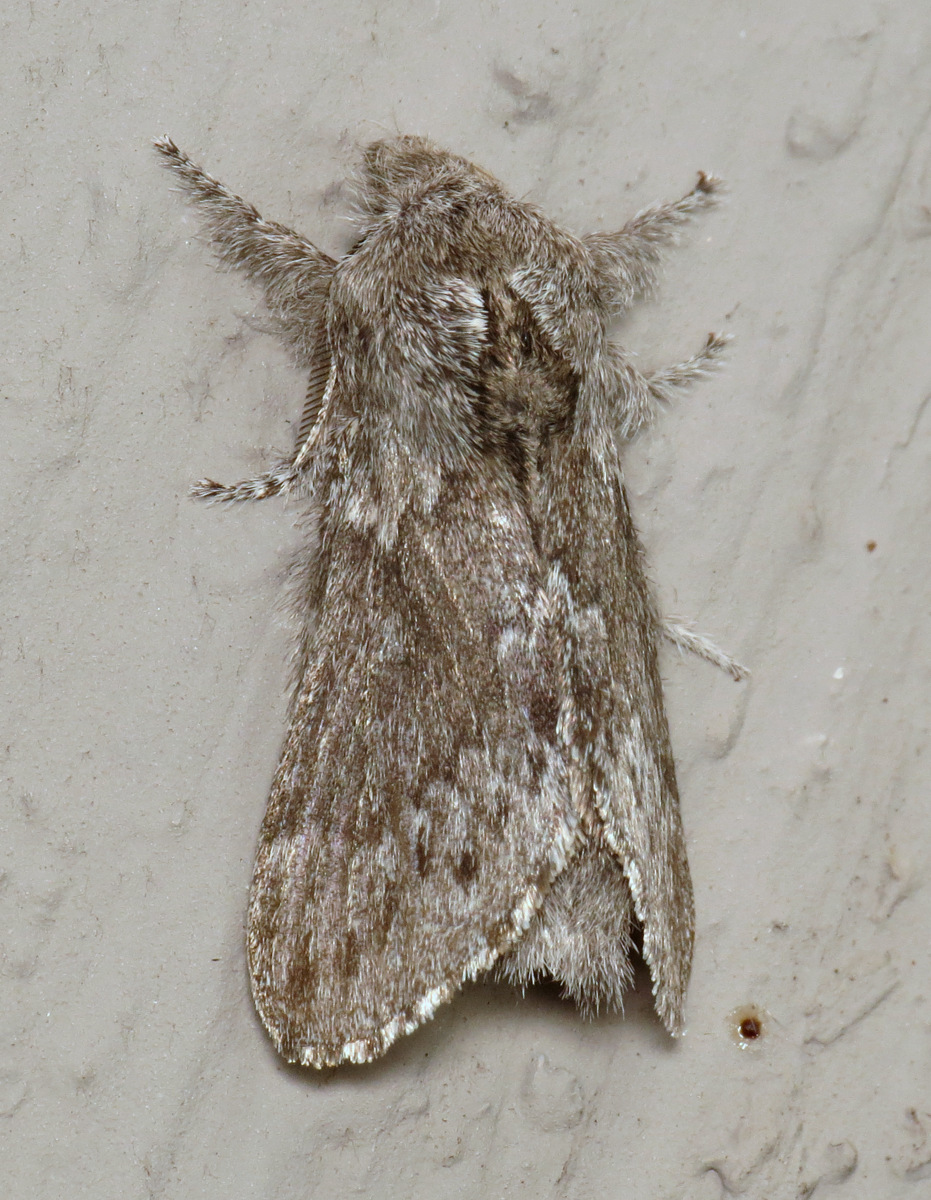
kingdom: Animalia
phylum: Arthropoda
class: Insecta
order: Lepidoptera
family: Lasiocampidae
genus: Heteropacha
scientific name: Heteropacha rileyana
